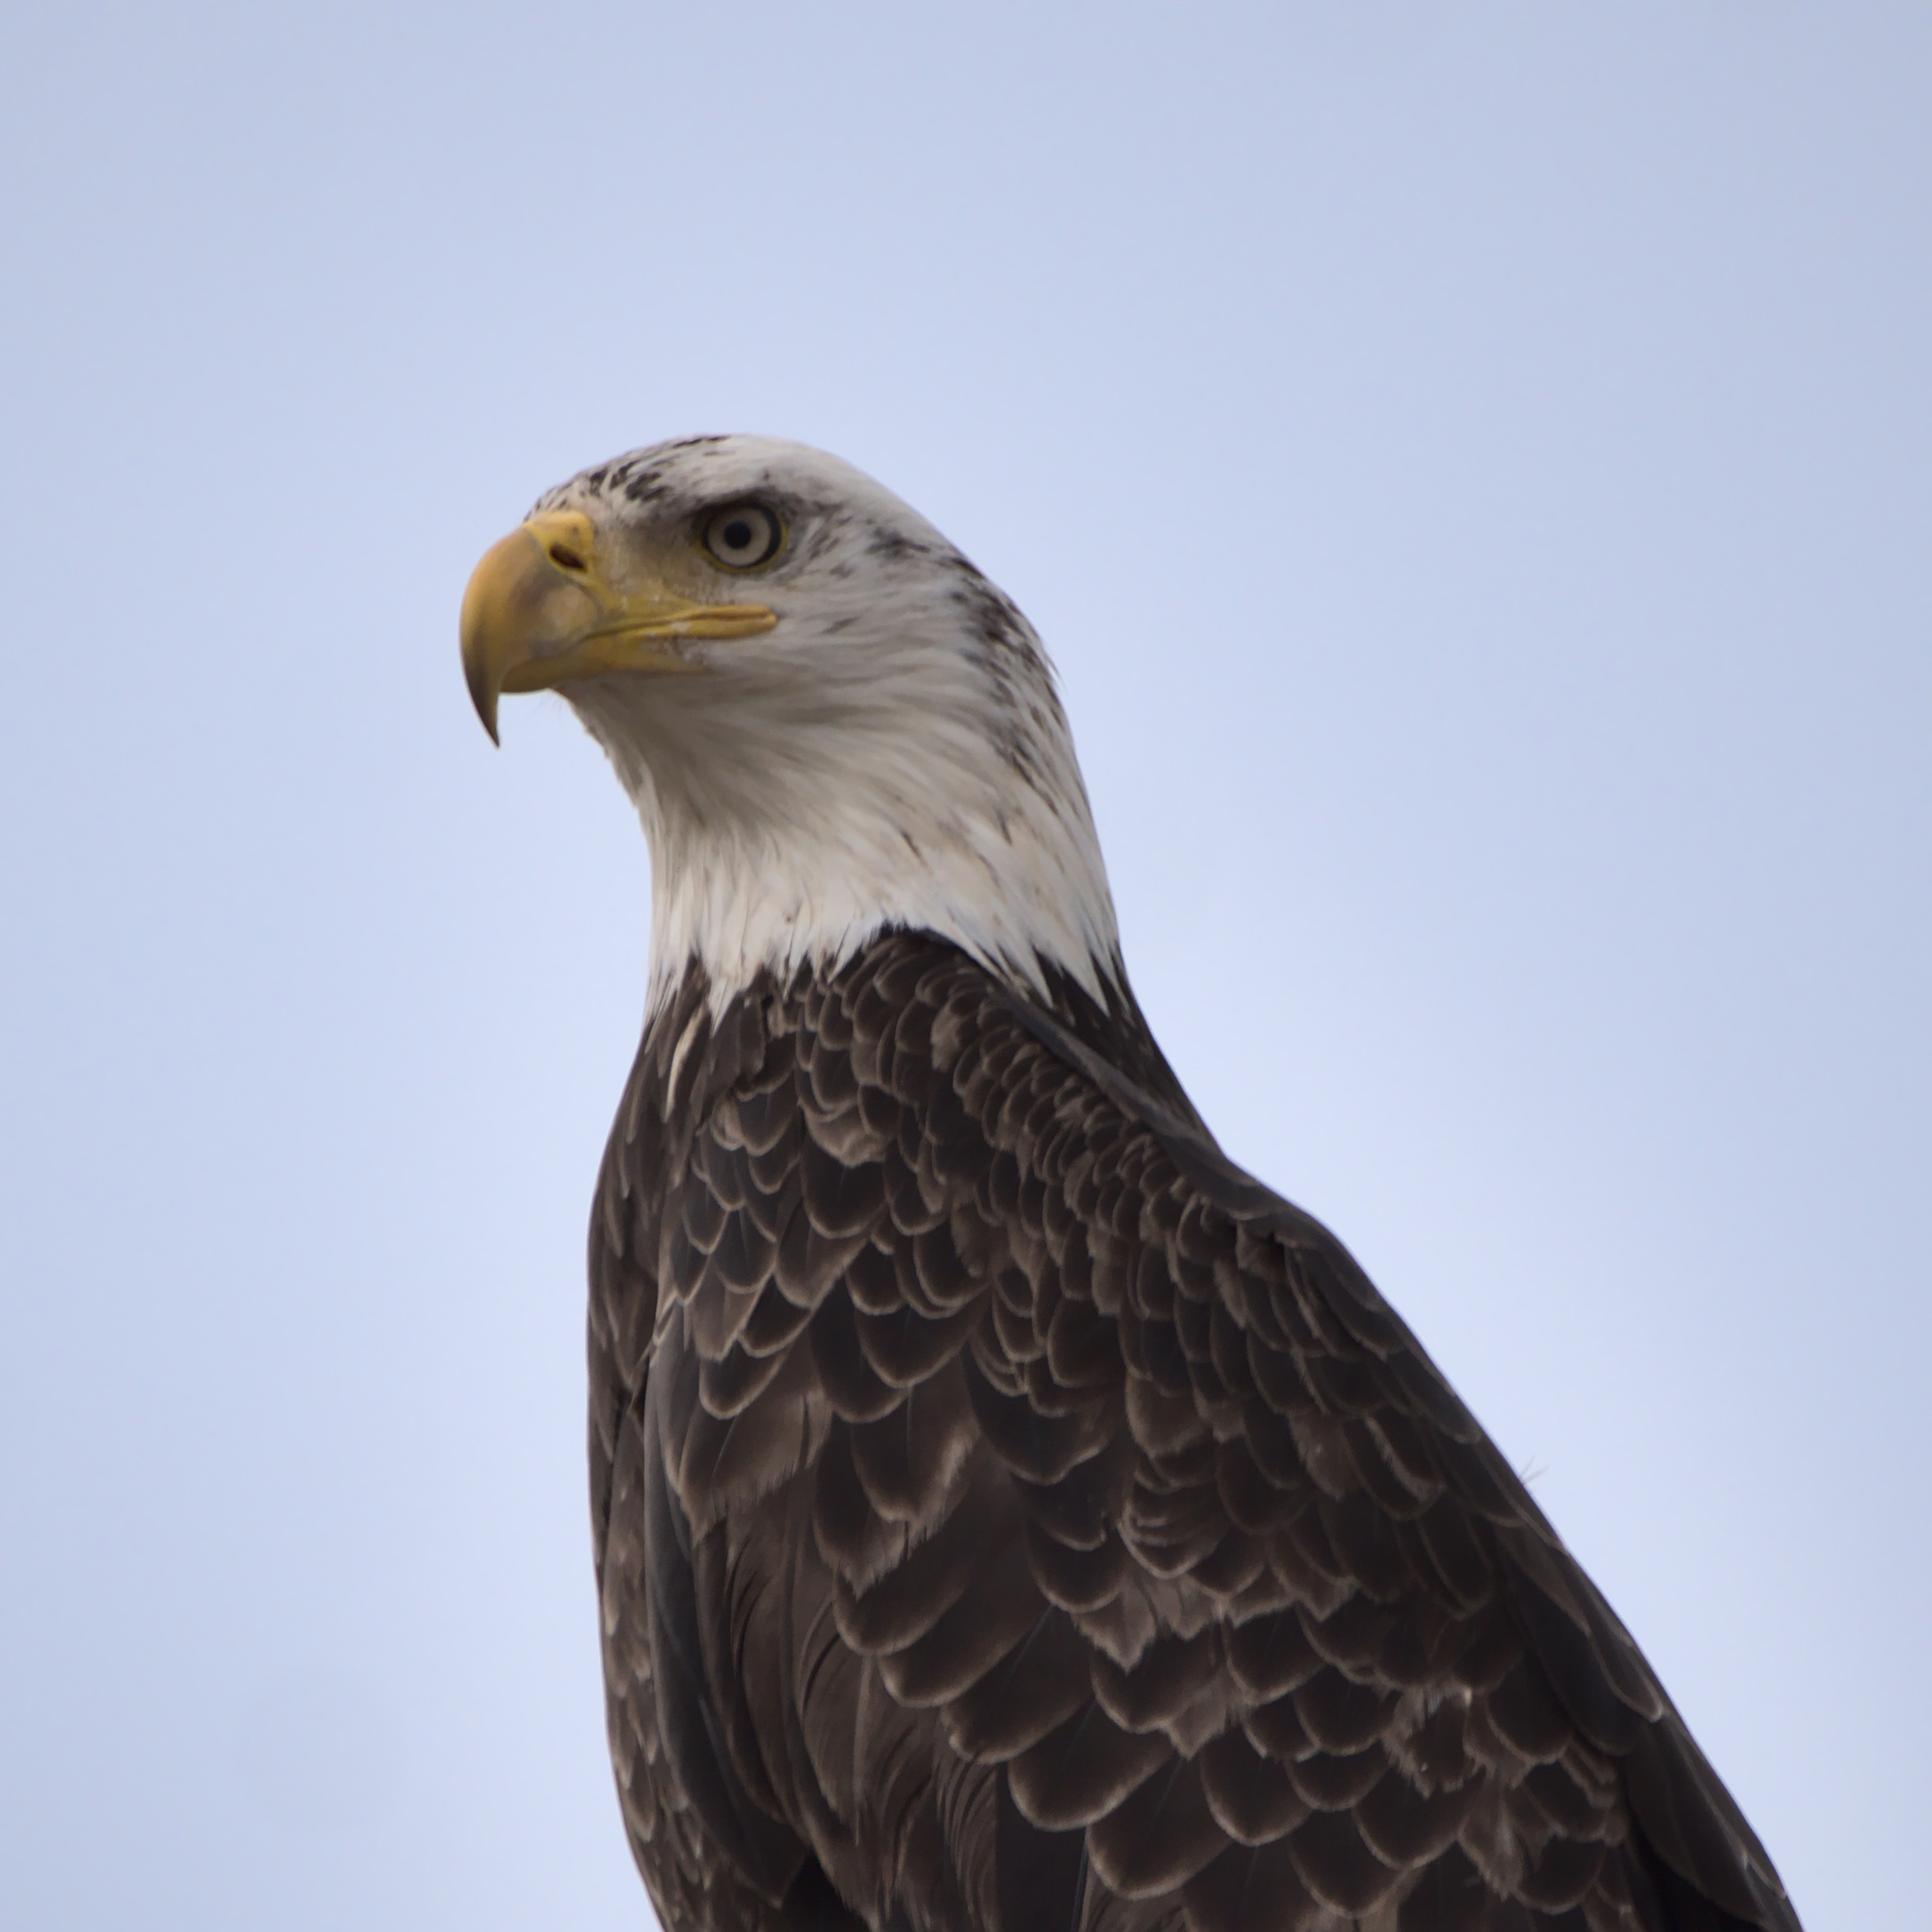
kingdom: Animalia
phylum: Chordata
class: Aves
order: Accipitriformes
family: Accipitridae
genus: Haliaeetus
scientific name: Haliaeetus leucocephalus
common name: Bald eagle
